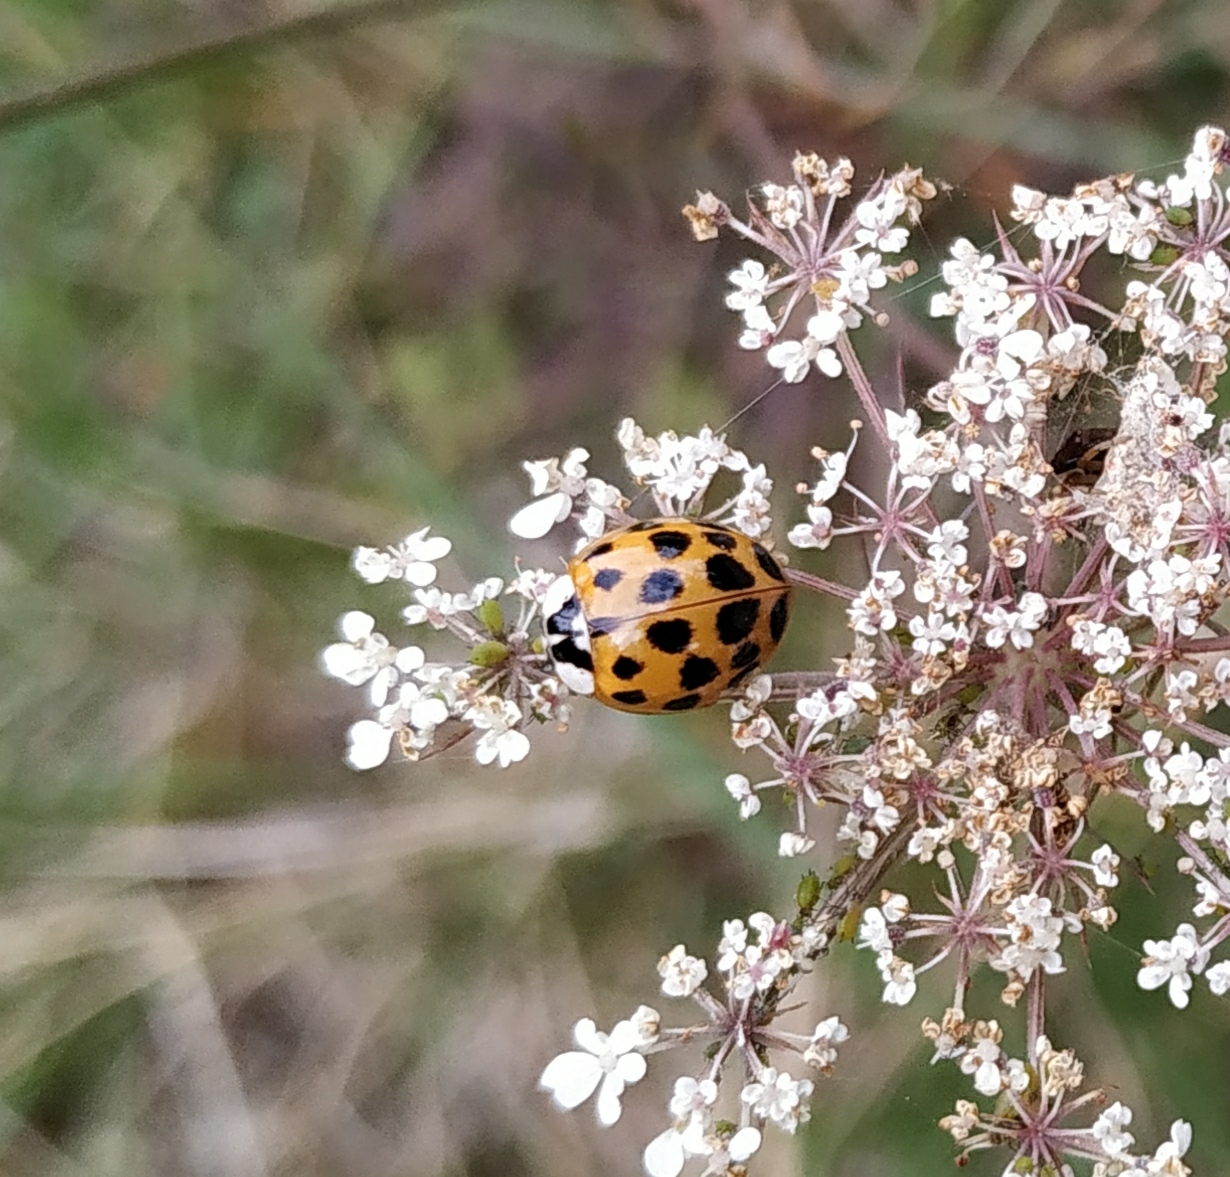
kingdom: Animalia
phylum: Arthropoda
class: Insecta
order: Coleoptera
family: Coccinellidae
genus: Harmonia
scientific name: Harmonia axyridis
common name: Harlequin ladybird
